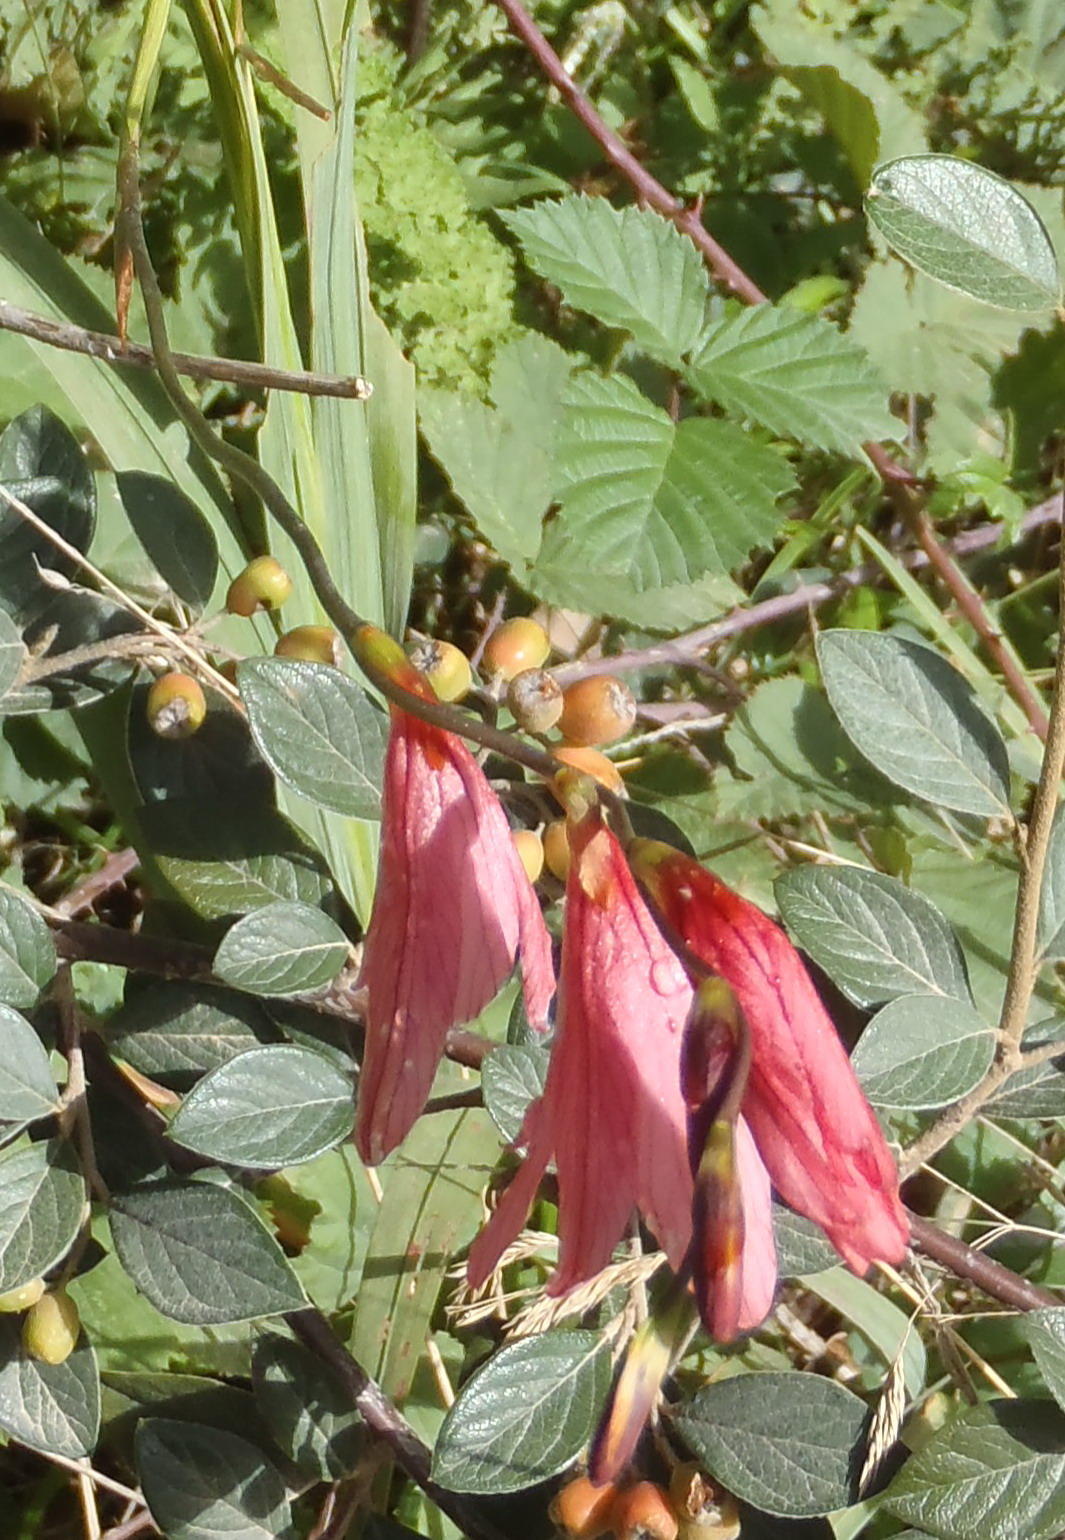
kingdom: Plantae
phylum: Tracheophyta
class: Liliopsida
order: Asparagales
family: Iridaceae
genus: Tritonia
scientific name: Tritonia disticha
